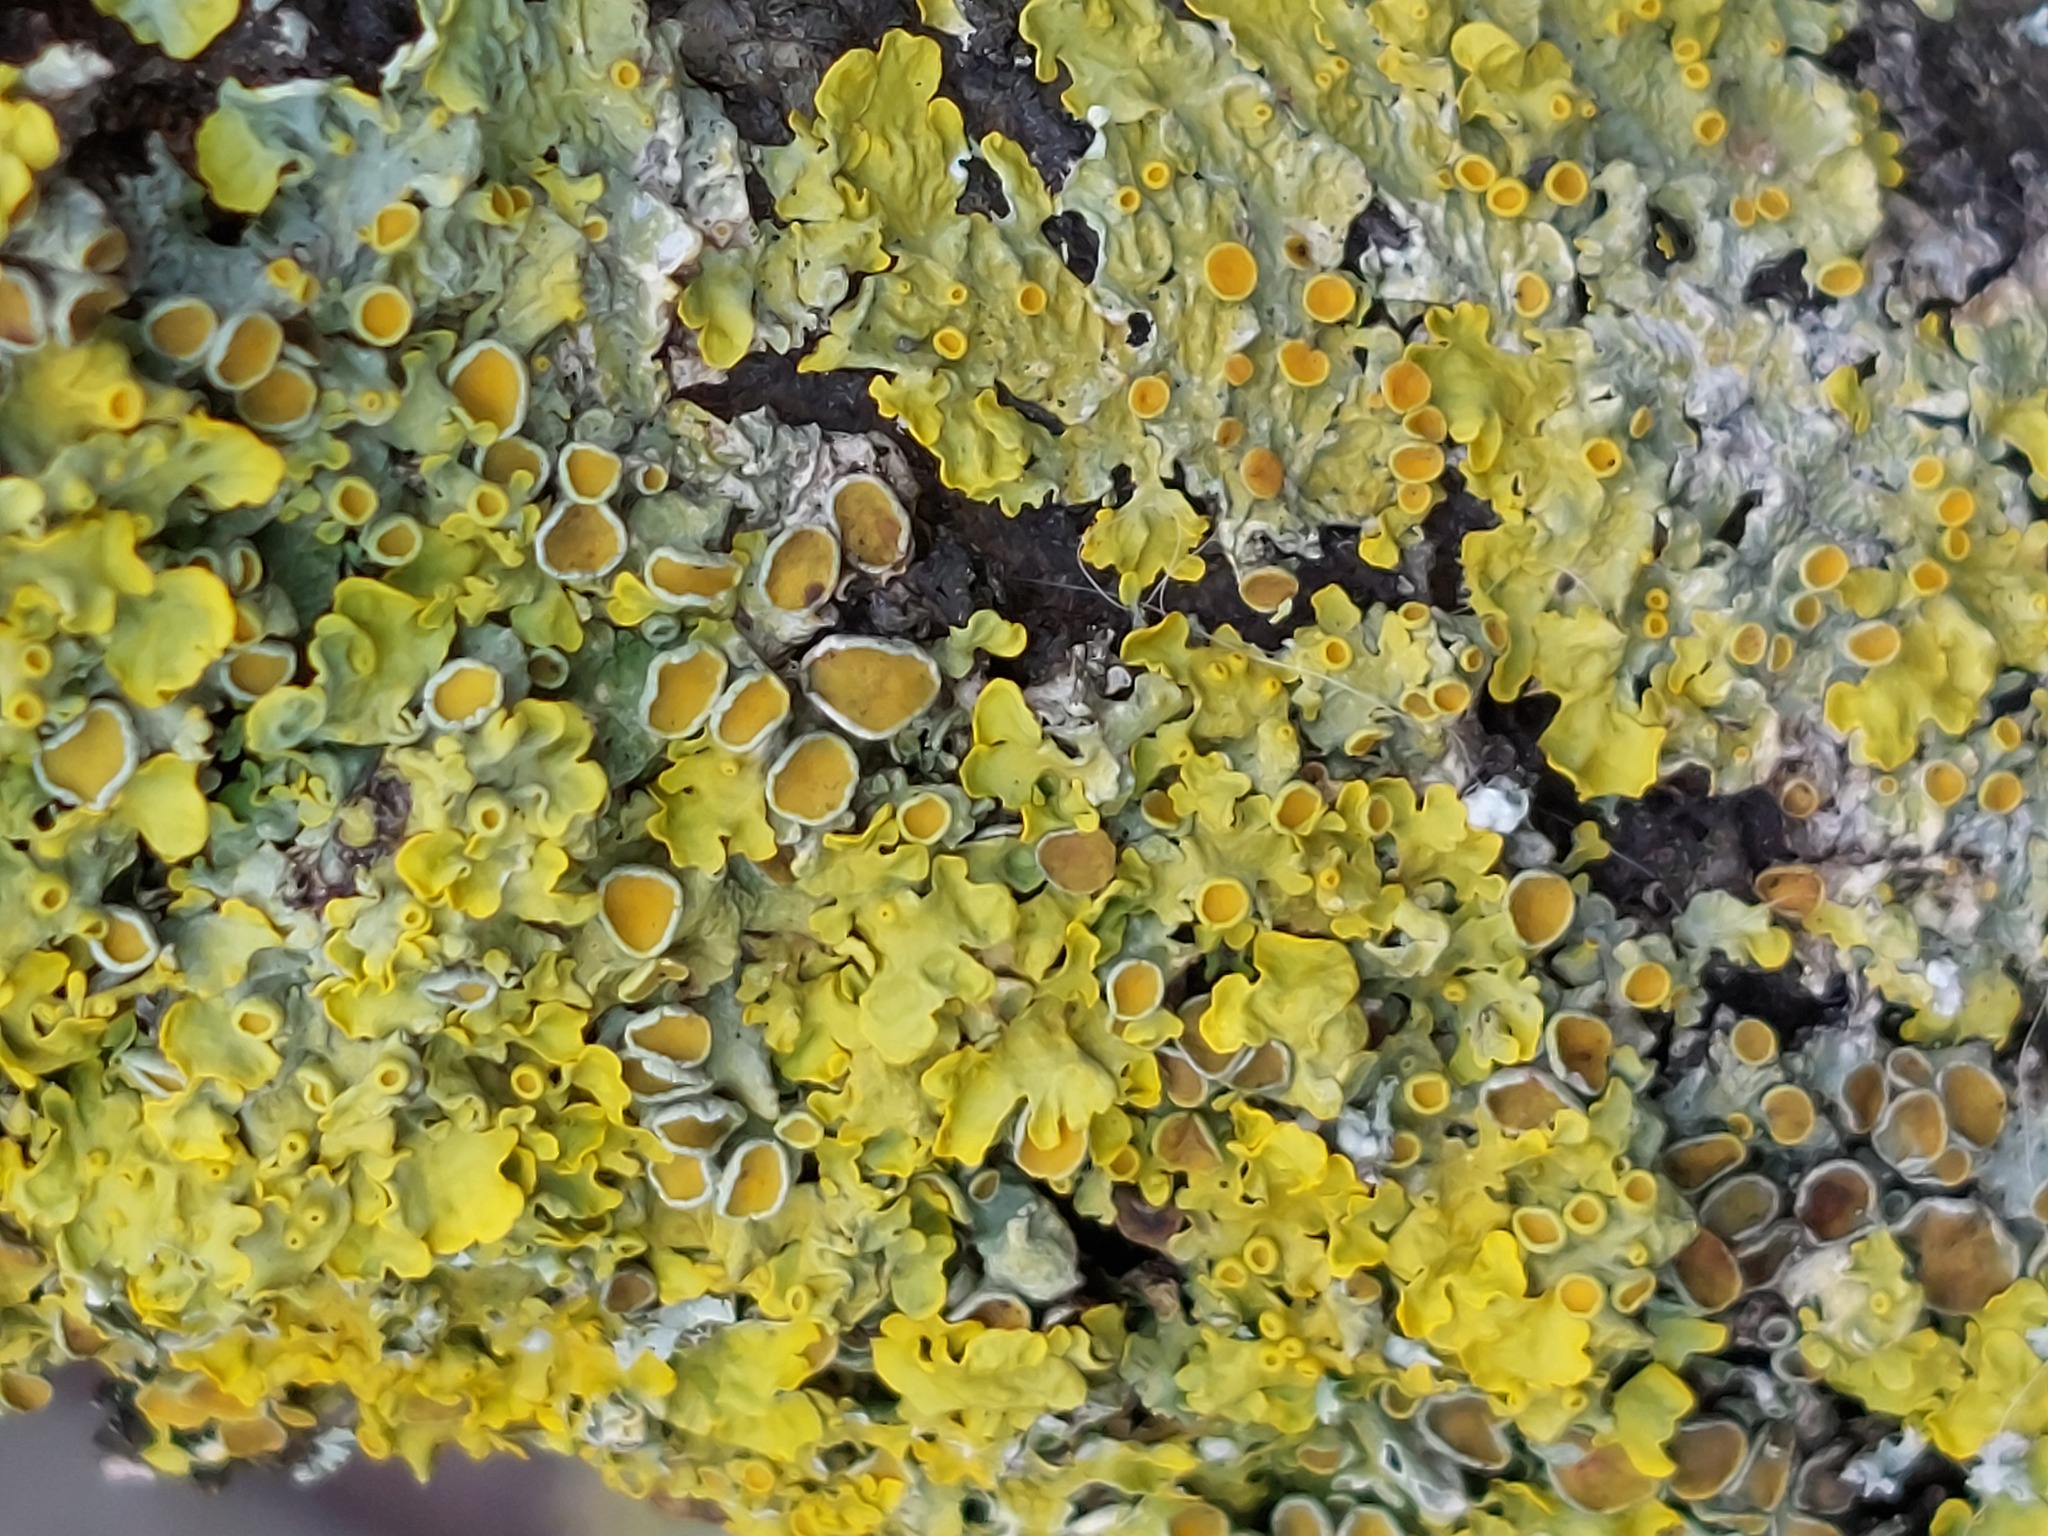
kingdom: Fungi
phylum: Ascomycota
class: Lecanoromycetes
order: Teloschistales
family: Teloschistaceae
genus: Xanthoria
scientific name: Xanthoria parietina
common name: Common orange lichen
